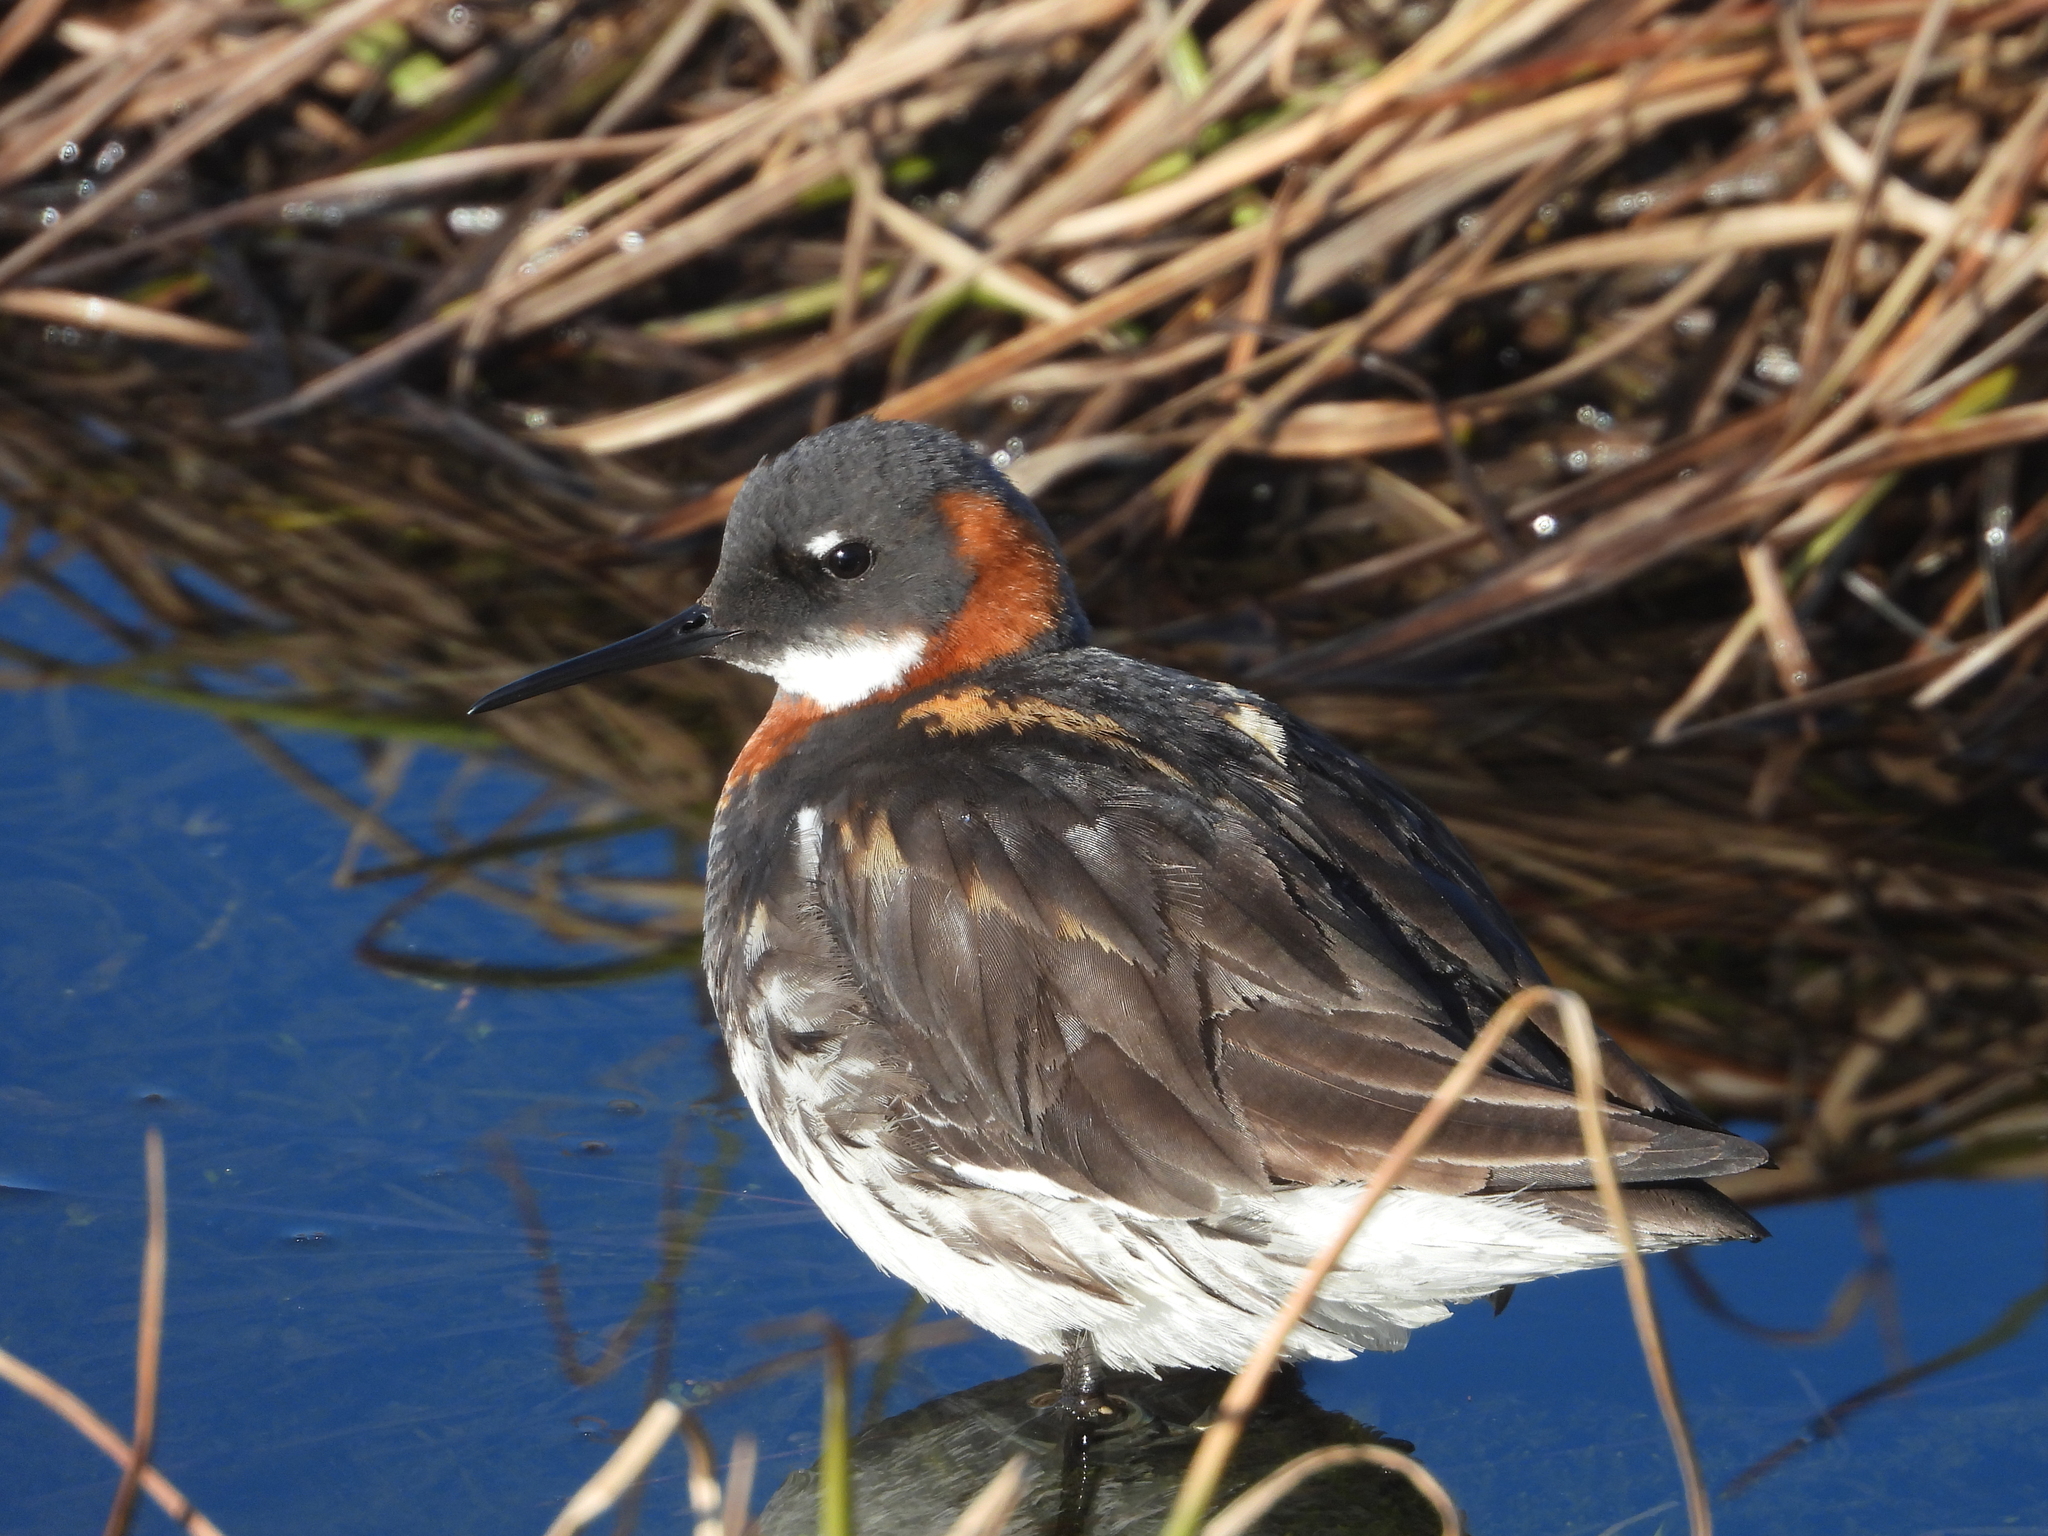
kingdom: Animalia
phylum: Chordata
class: Aves
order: Charadriiformes
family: Scolopacidae
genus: Phalaropus
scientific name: Phalaropus lobatus
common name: Red-necked phalarope
